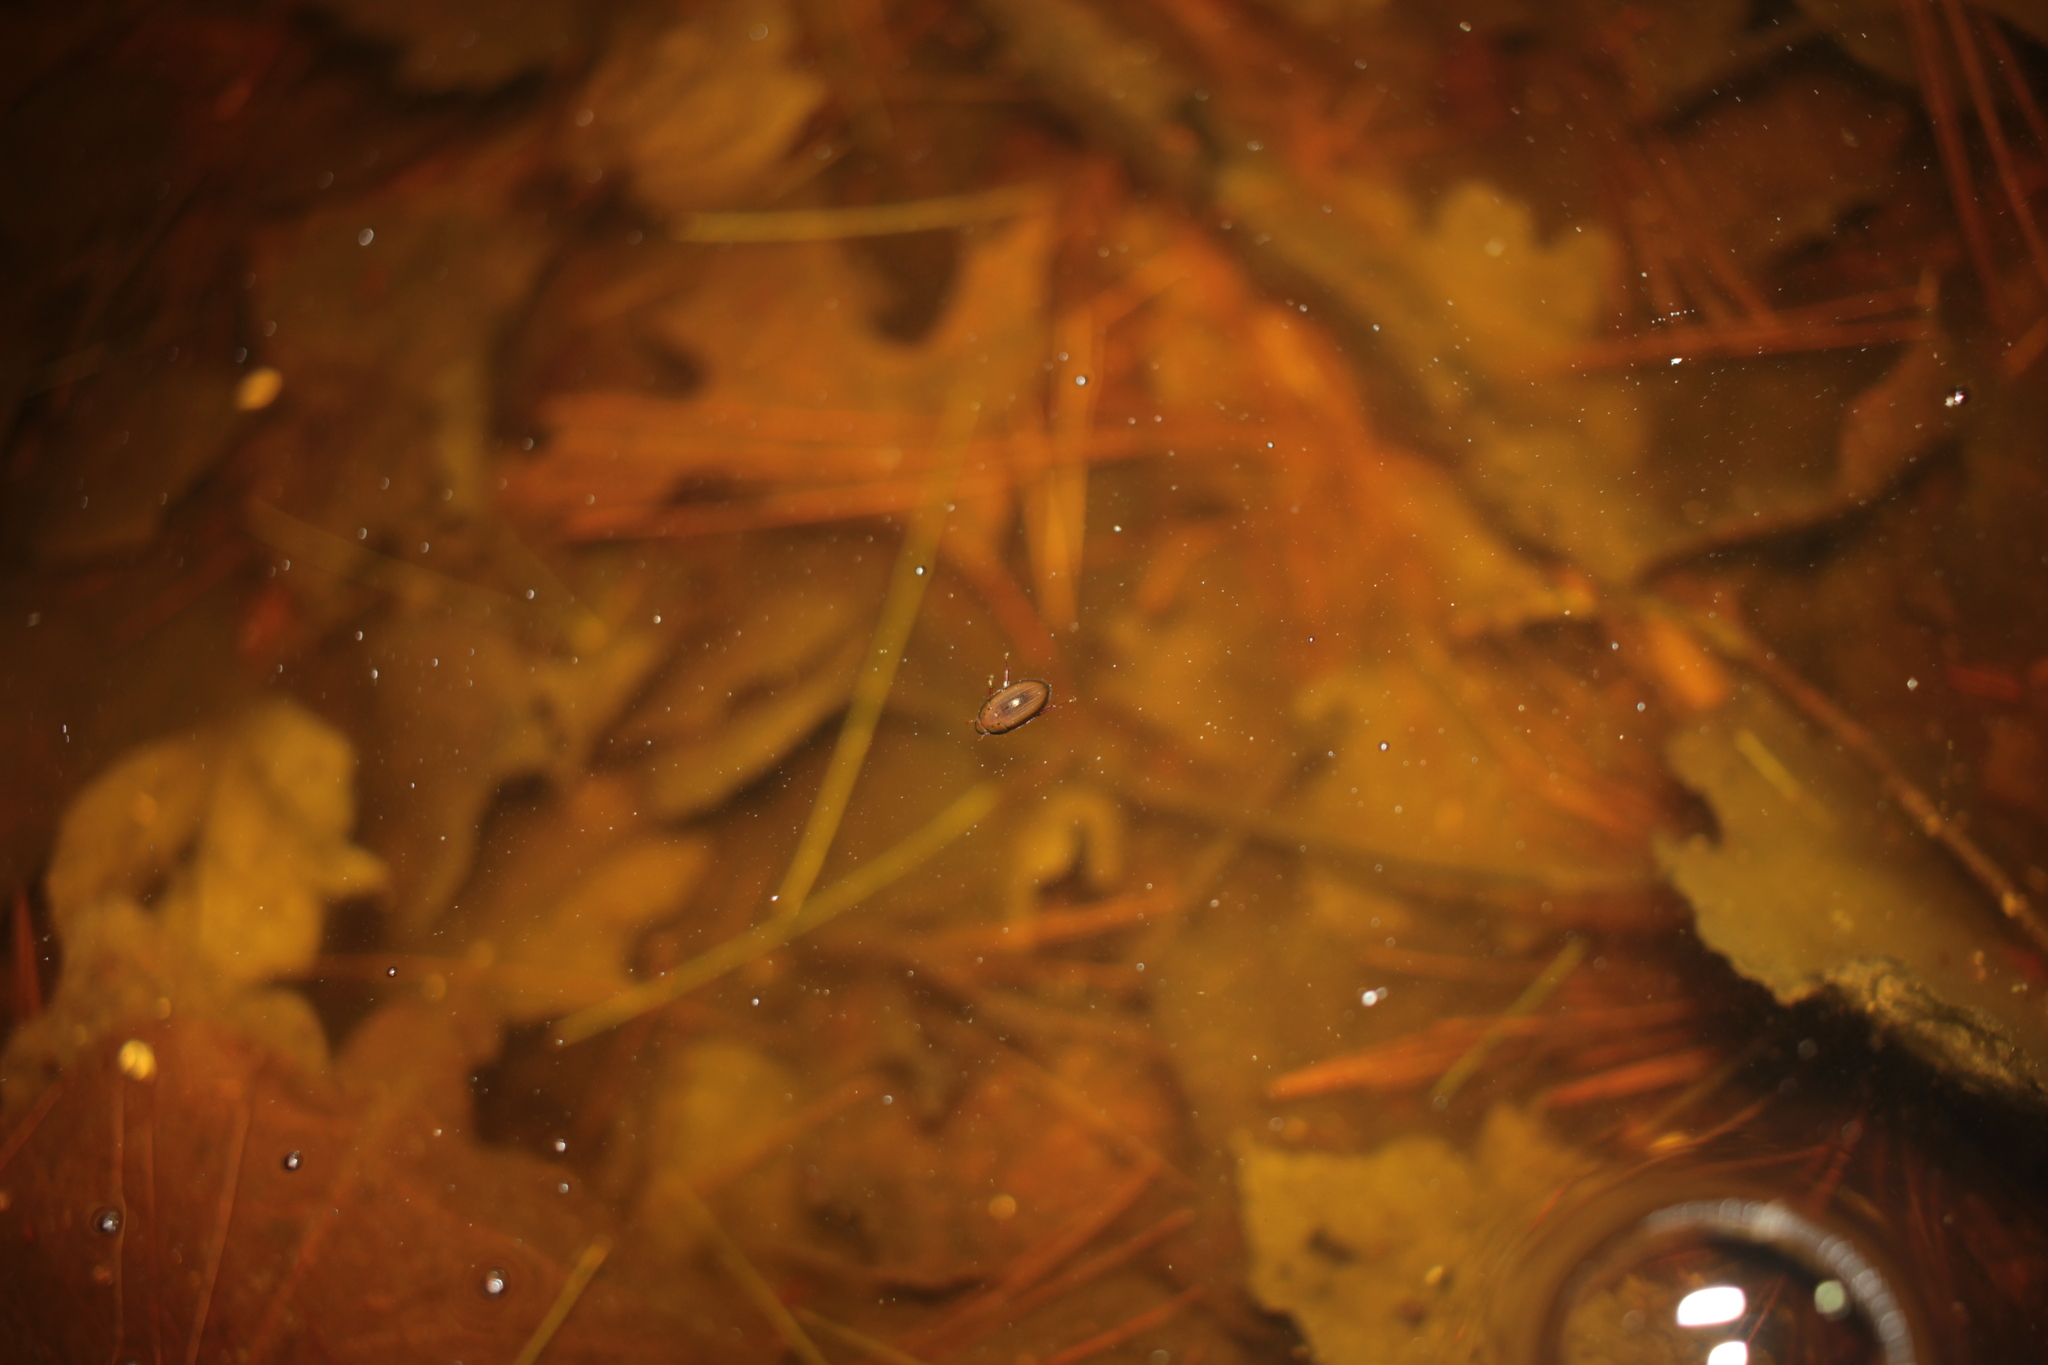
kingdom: Animalia
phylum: Arthropoda
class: Insecta
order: Coleoptera
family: Hydrophilidae
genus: Tropisternus
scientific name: Tropisternus
